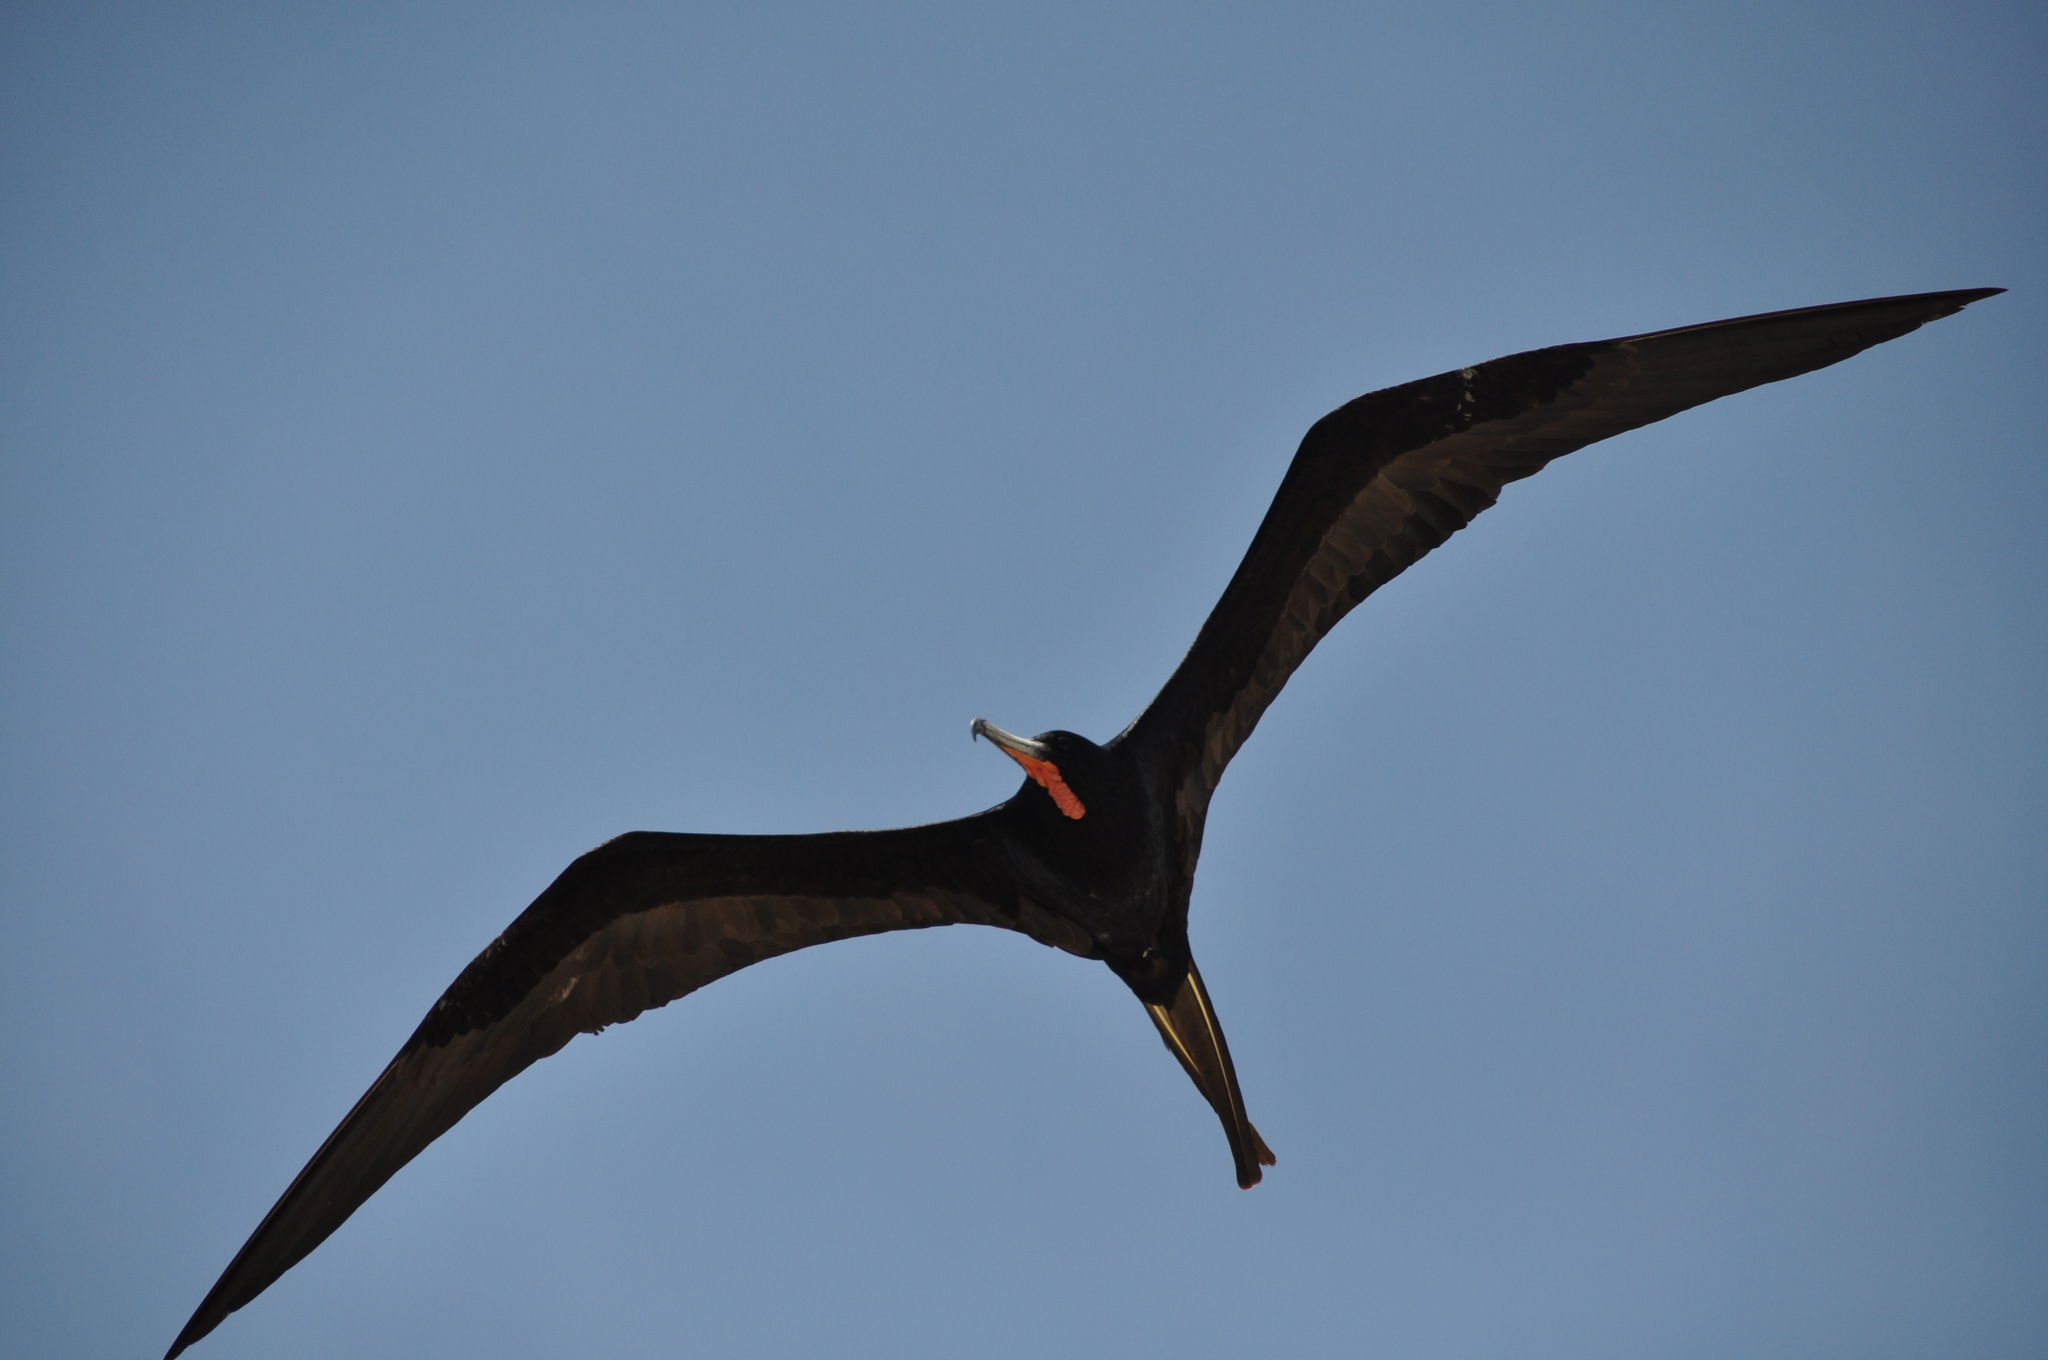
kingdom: Animalia
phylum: Chordata
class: Aves
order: Suliformes
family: Fregatidae
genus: Fregata
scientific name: Fregata magnificens
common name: Magnificent frigatebird
